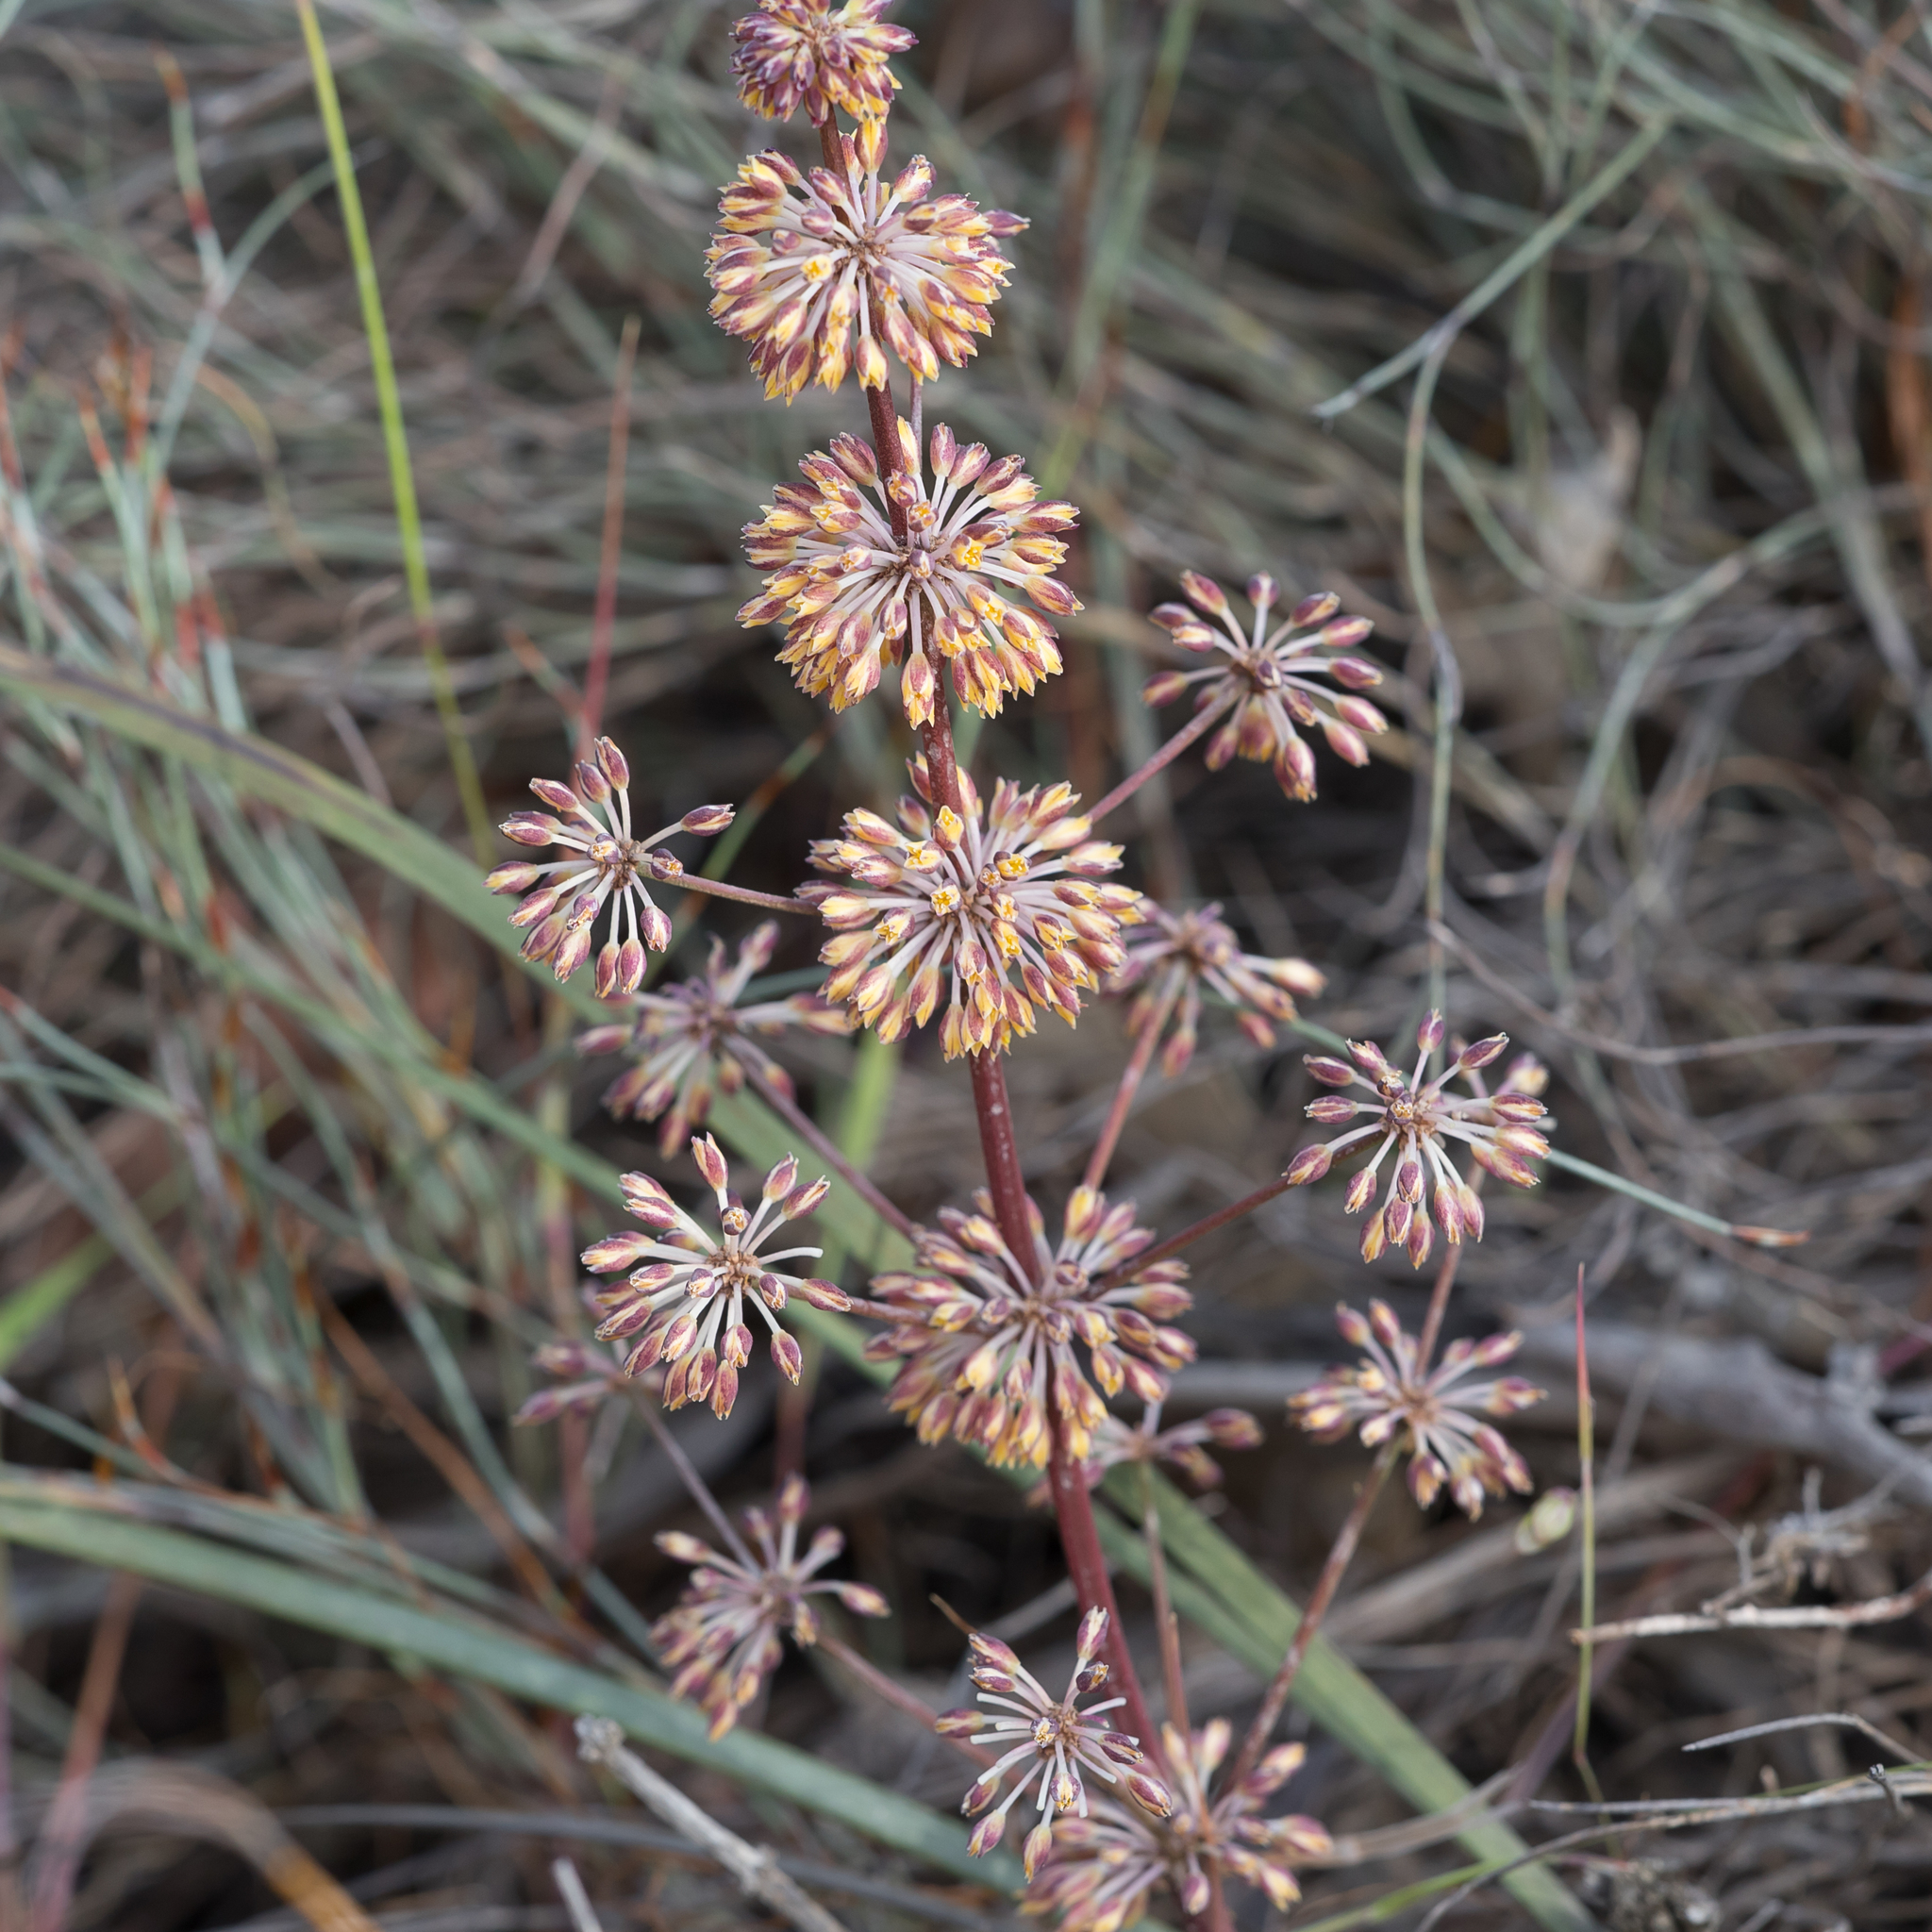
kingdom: Plantae
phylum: Tracheophyta
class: Liliopsida
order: Asparagales
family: Asparagaceae
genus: Lomandra
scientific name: Lomandra multiflora
